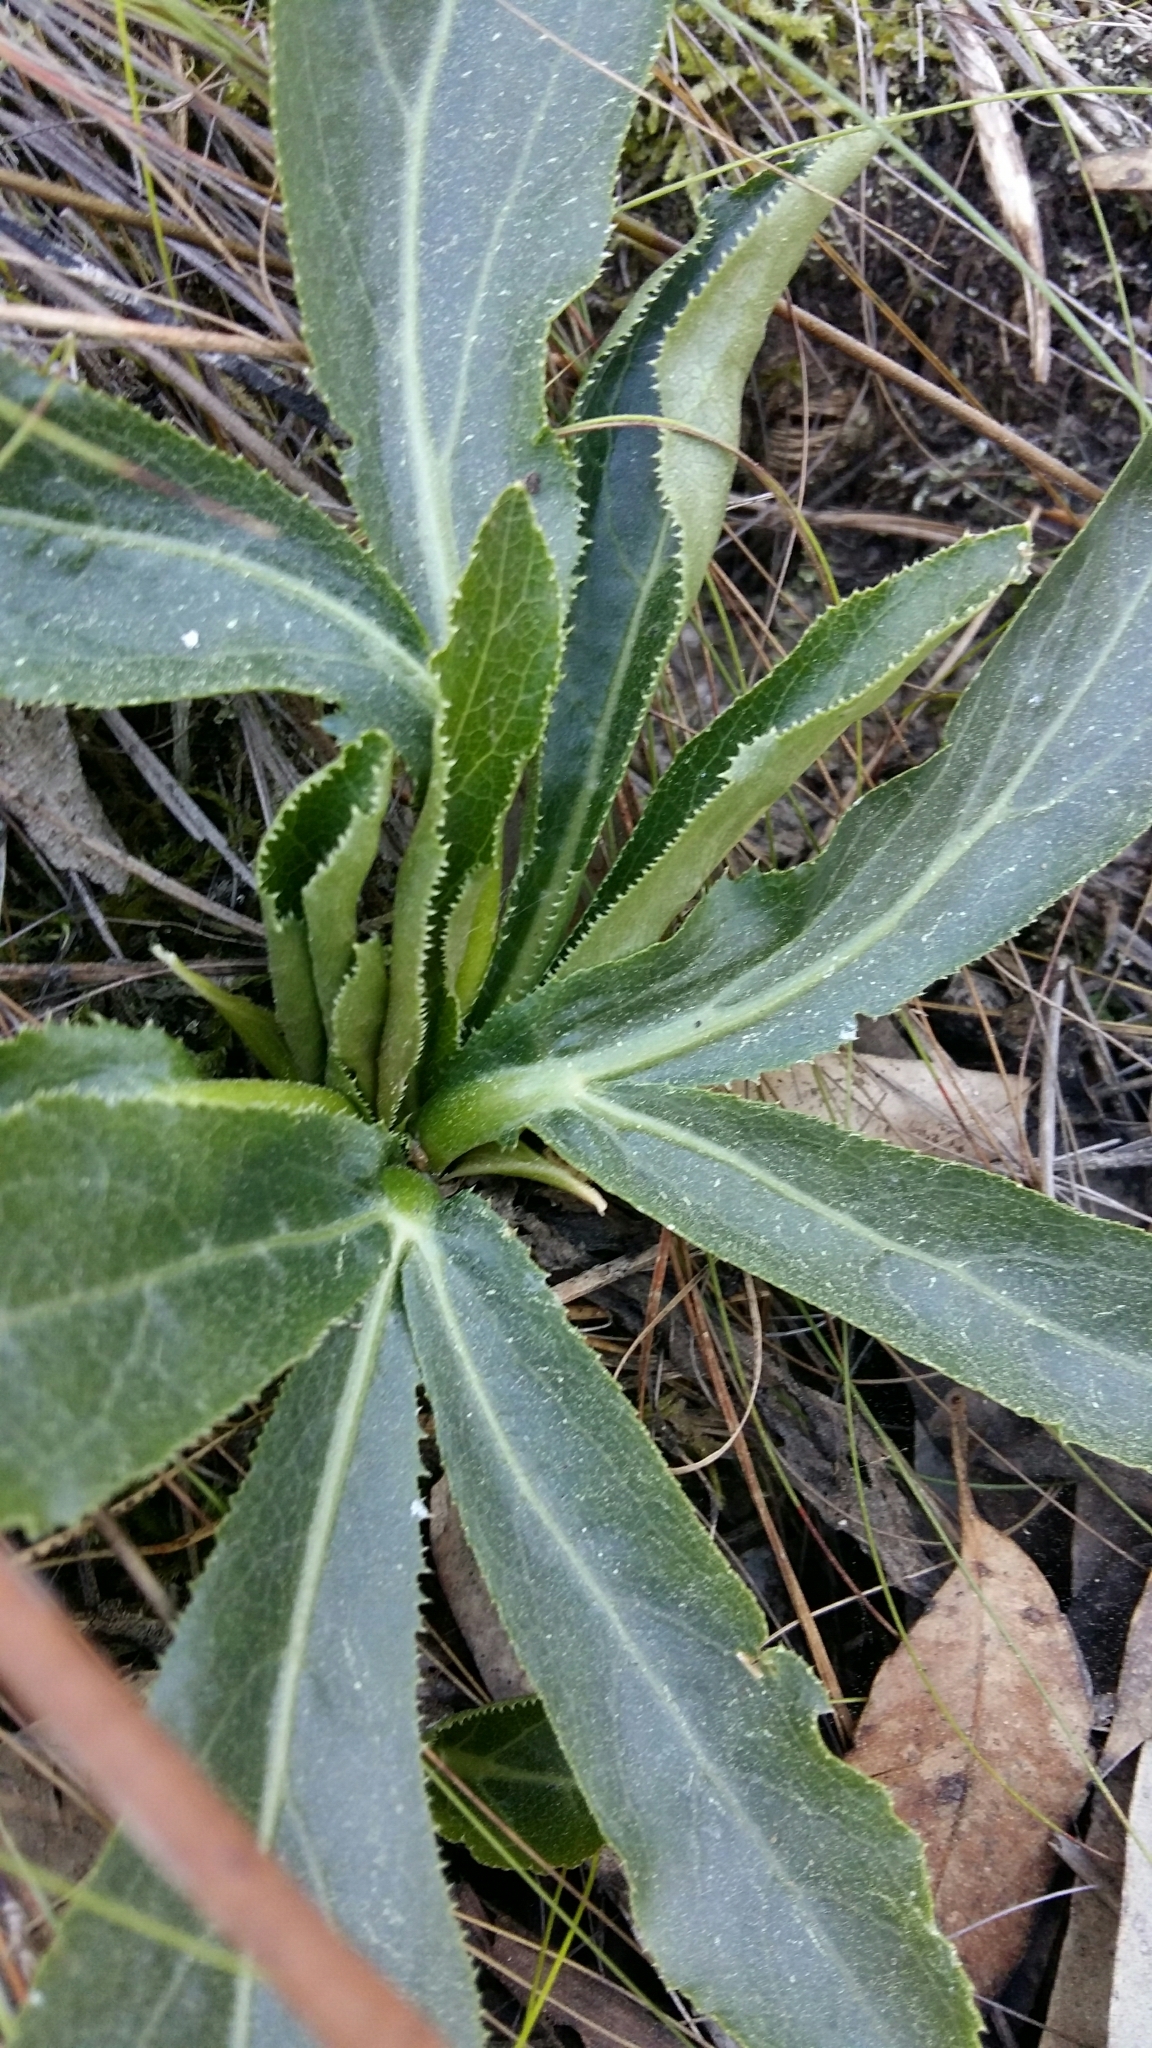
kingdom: Plantae
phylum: Tracheophyta
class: Magnoliopsida
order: Apiales
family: Apiaceae
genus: Lichtensteinia
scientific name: Lichtensteinia trifida
